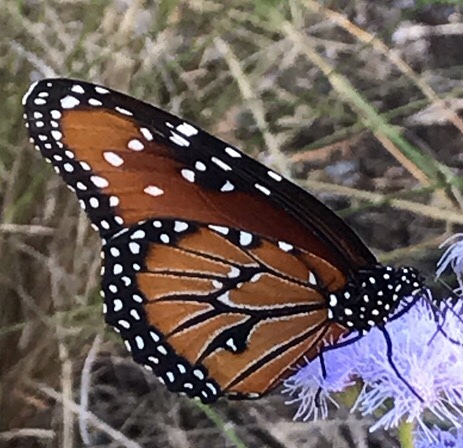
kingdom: Animalia
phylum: Arthropoda
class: Insecta
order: Lepidoptera
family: Nymphalidae
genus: Danaus
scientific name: Danaus gilippus
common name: Queen
